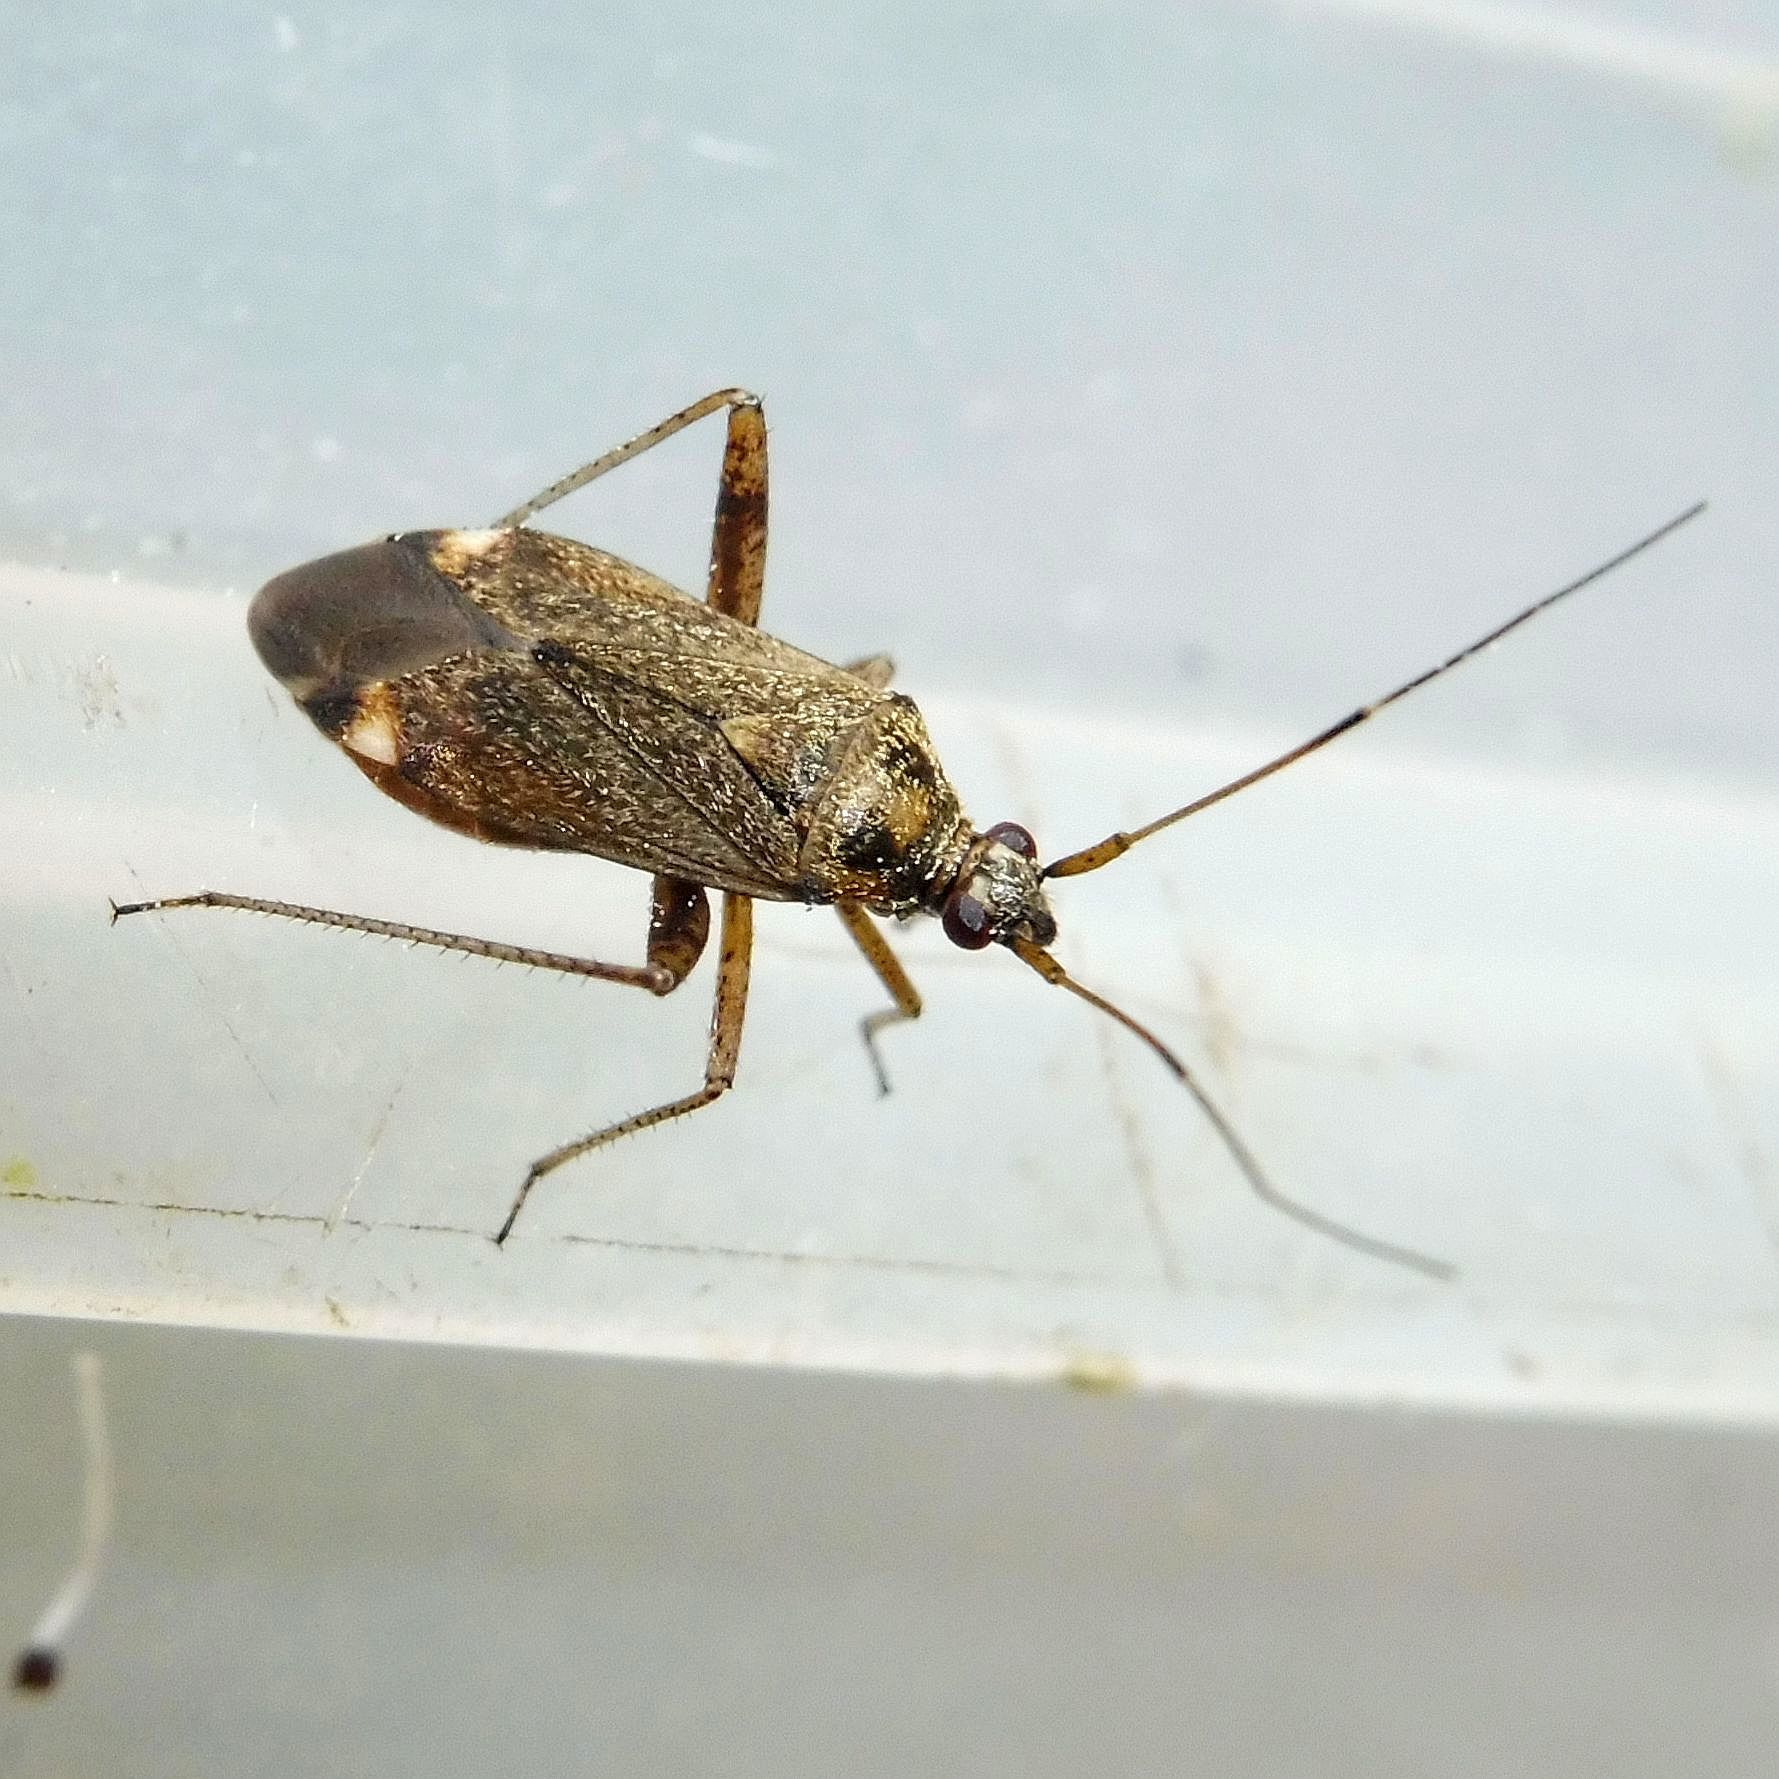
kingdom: Animalia
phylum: Arthropoda
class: Insecta
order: Hemiptera
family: Miridae
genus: Closterotomus
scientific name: Closterotomus fulvomaculatus
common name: Spotted plant bug
